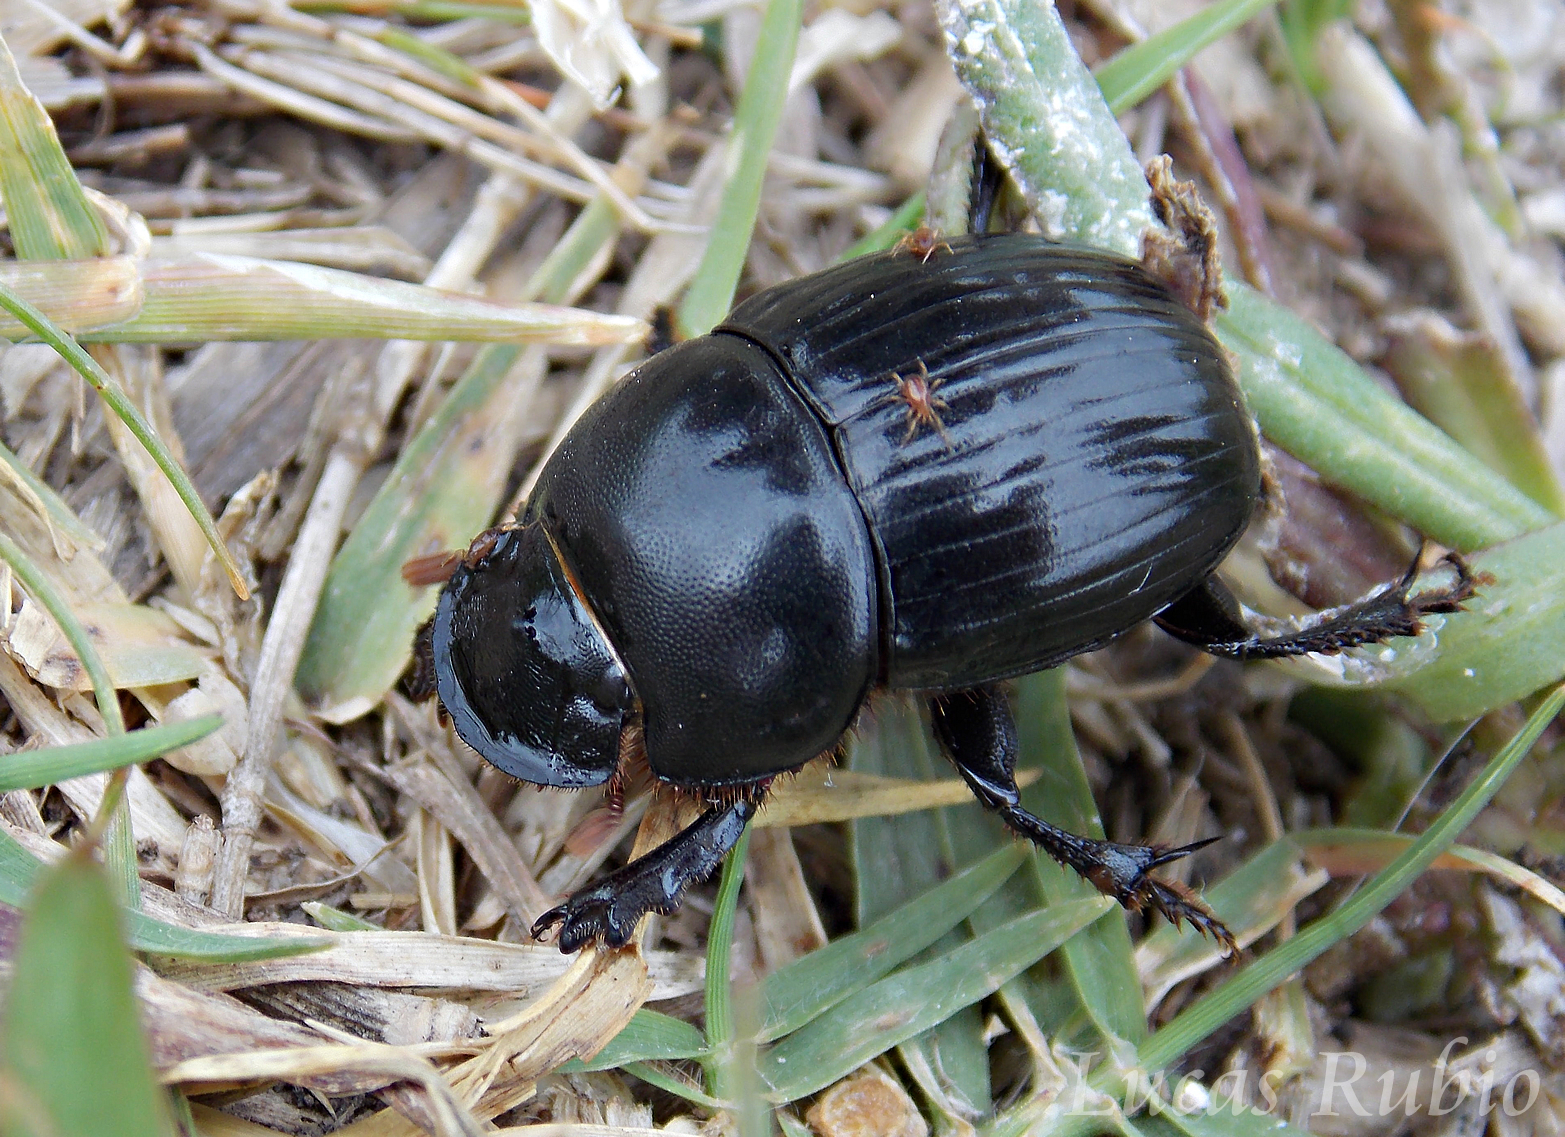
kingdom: Animalia
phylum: Arthropoda
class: Insecta
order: Coleoptera
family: Scarabaeidae
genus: Ontherus
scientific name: Ontherus sulcator
